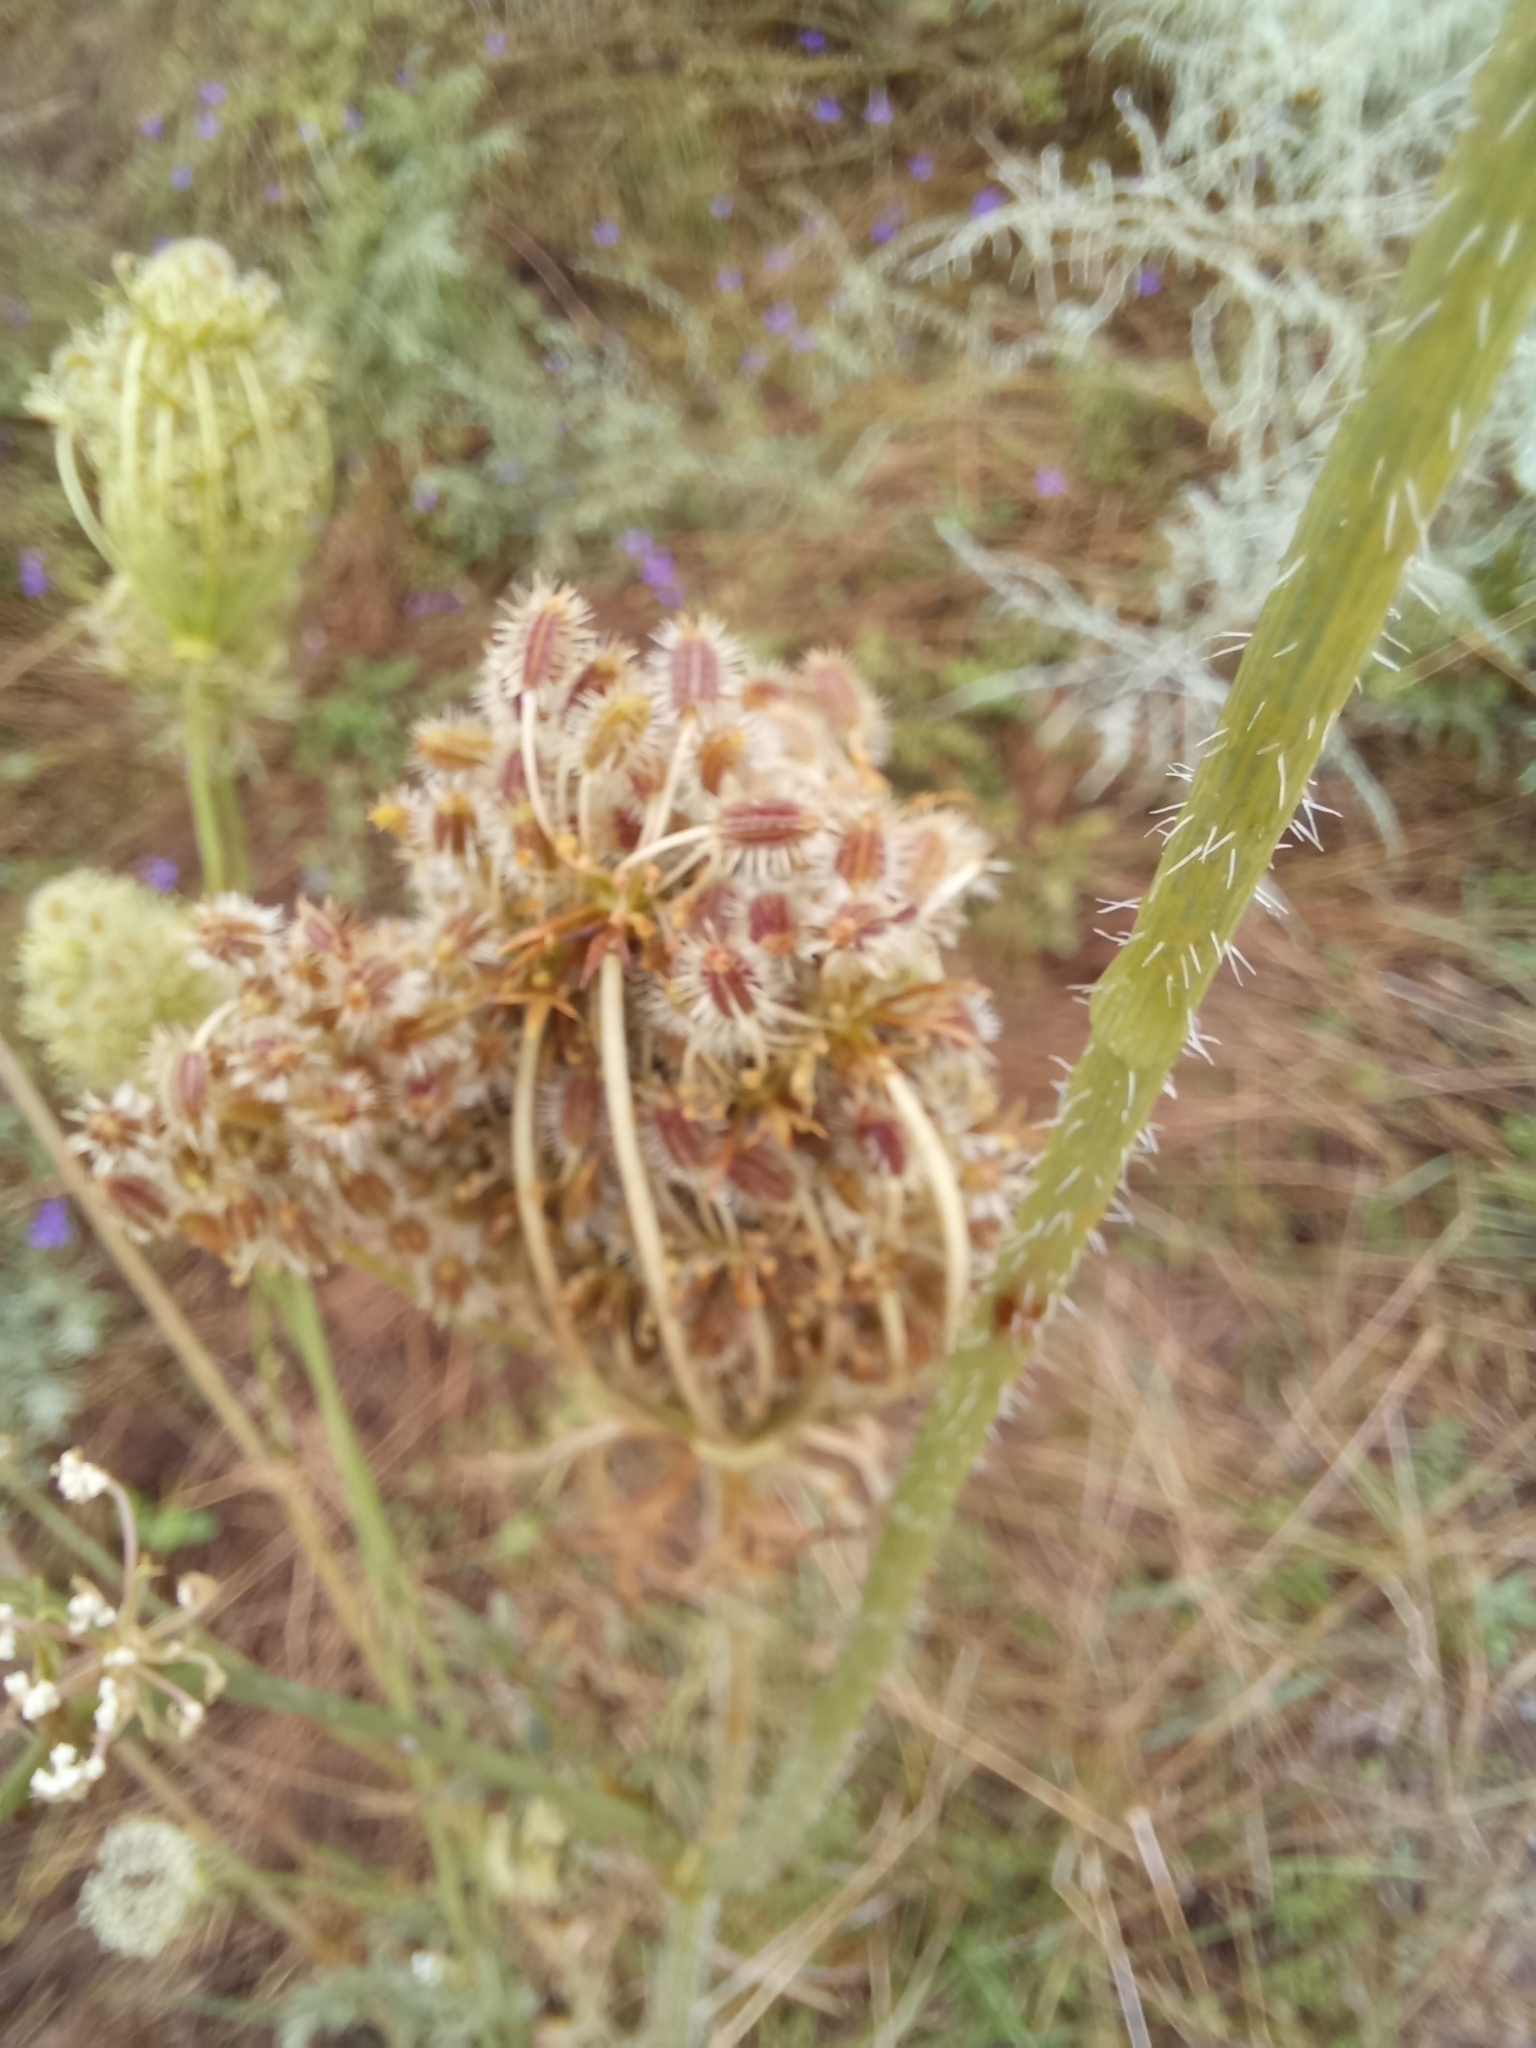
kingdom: Plantae
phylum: Tracheophyta
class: Magnoliopsida
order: Apiales
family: Apiaceae
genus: Daucus
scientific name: Daucus carota
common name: Wild carrot
